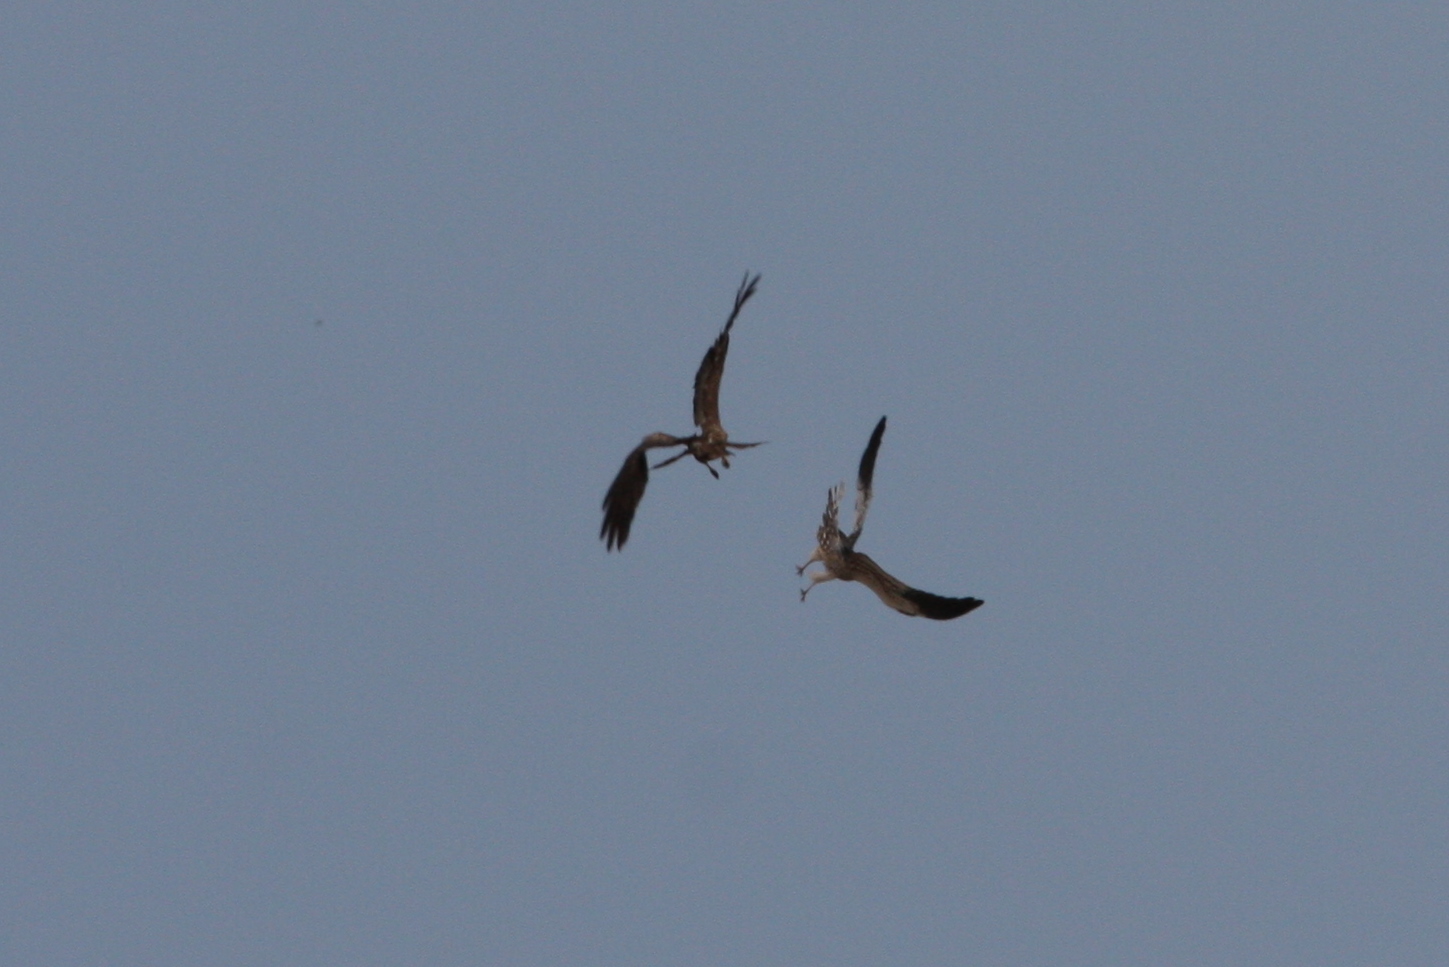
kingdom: Animalia
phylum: Chordata
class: Aves
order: Accipitriformes
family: Accipitridae
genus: Circus
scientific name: Circus pygargus
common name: Montagu's harrier
